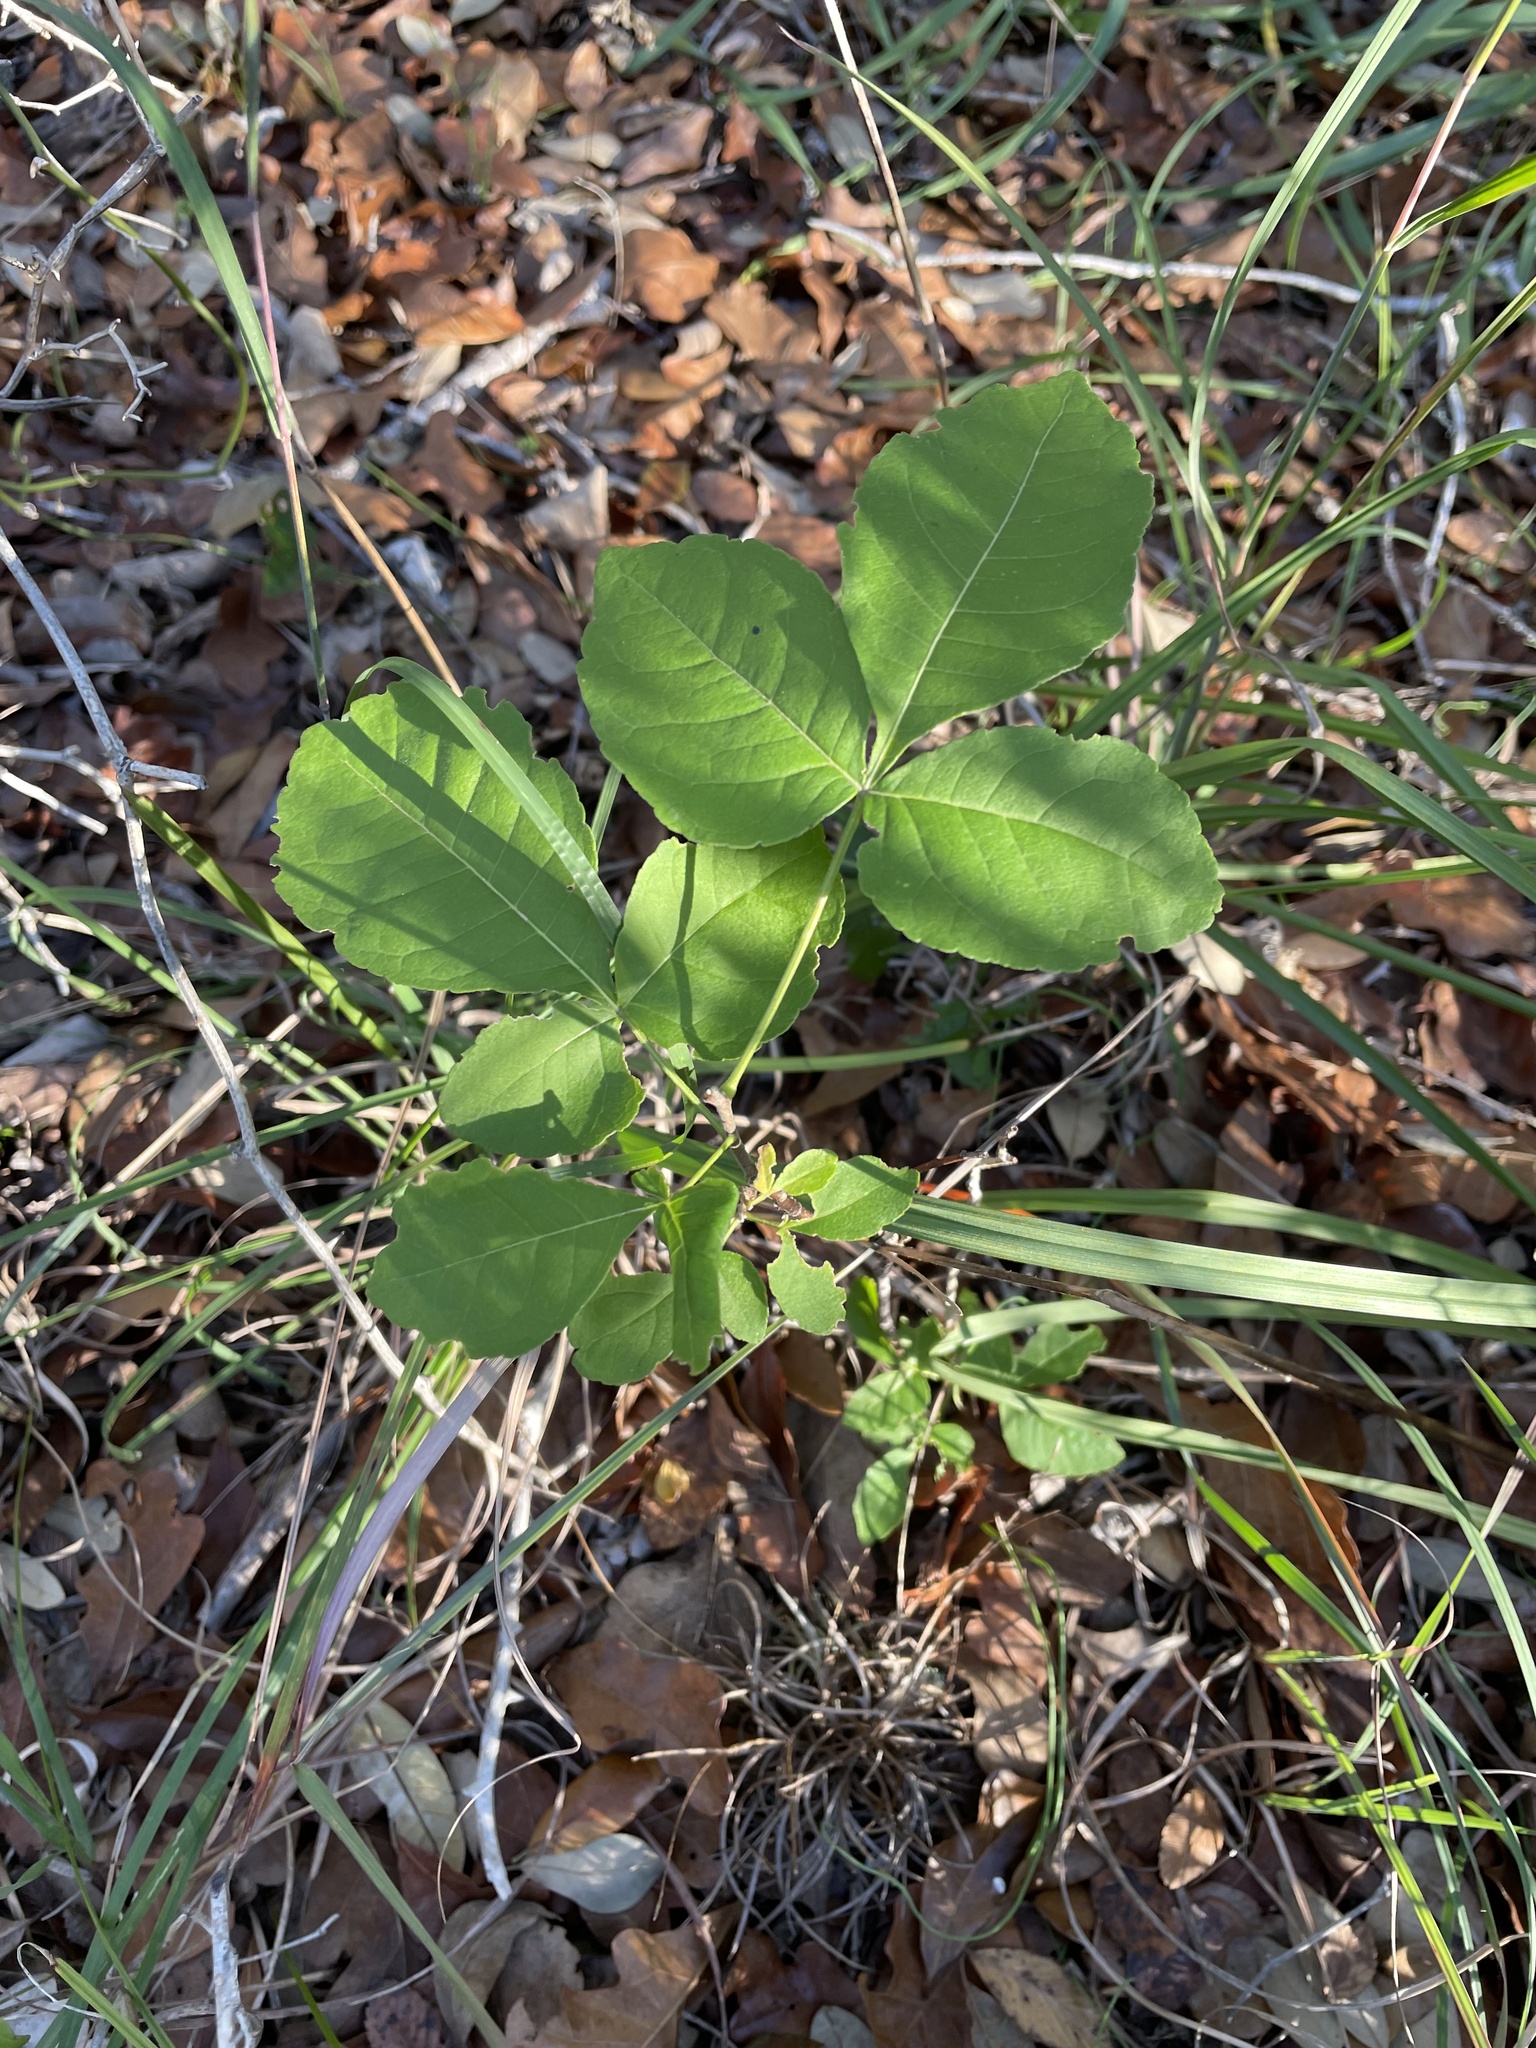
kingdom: Plantae
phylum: Tracheophyta
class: Magnoliopsida
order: Sapindales
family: Rutaceae
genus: Ptelea
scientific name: Ptelea trifoliata
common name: Common hop-tree
